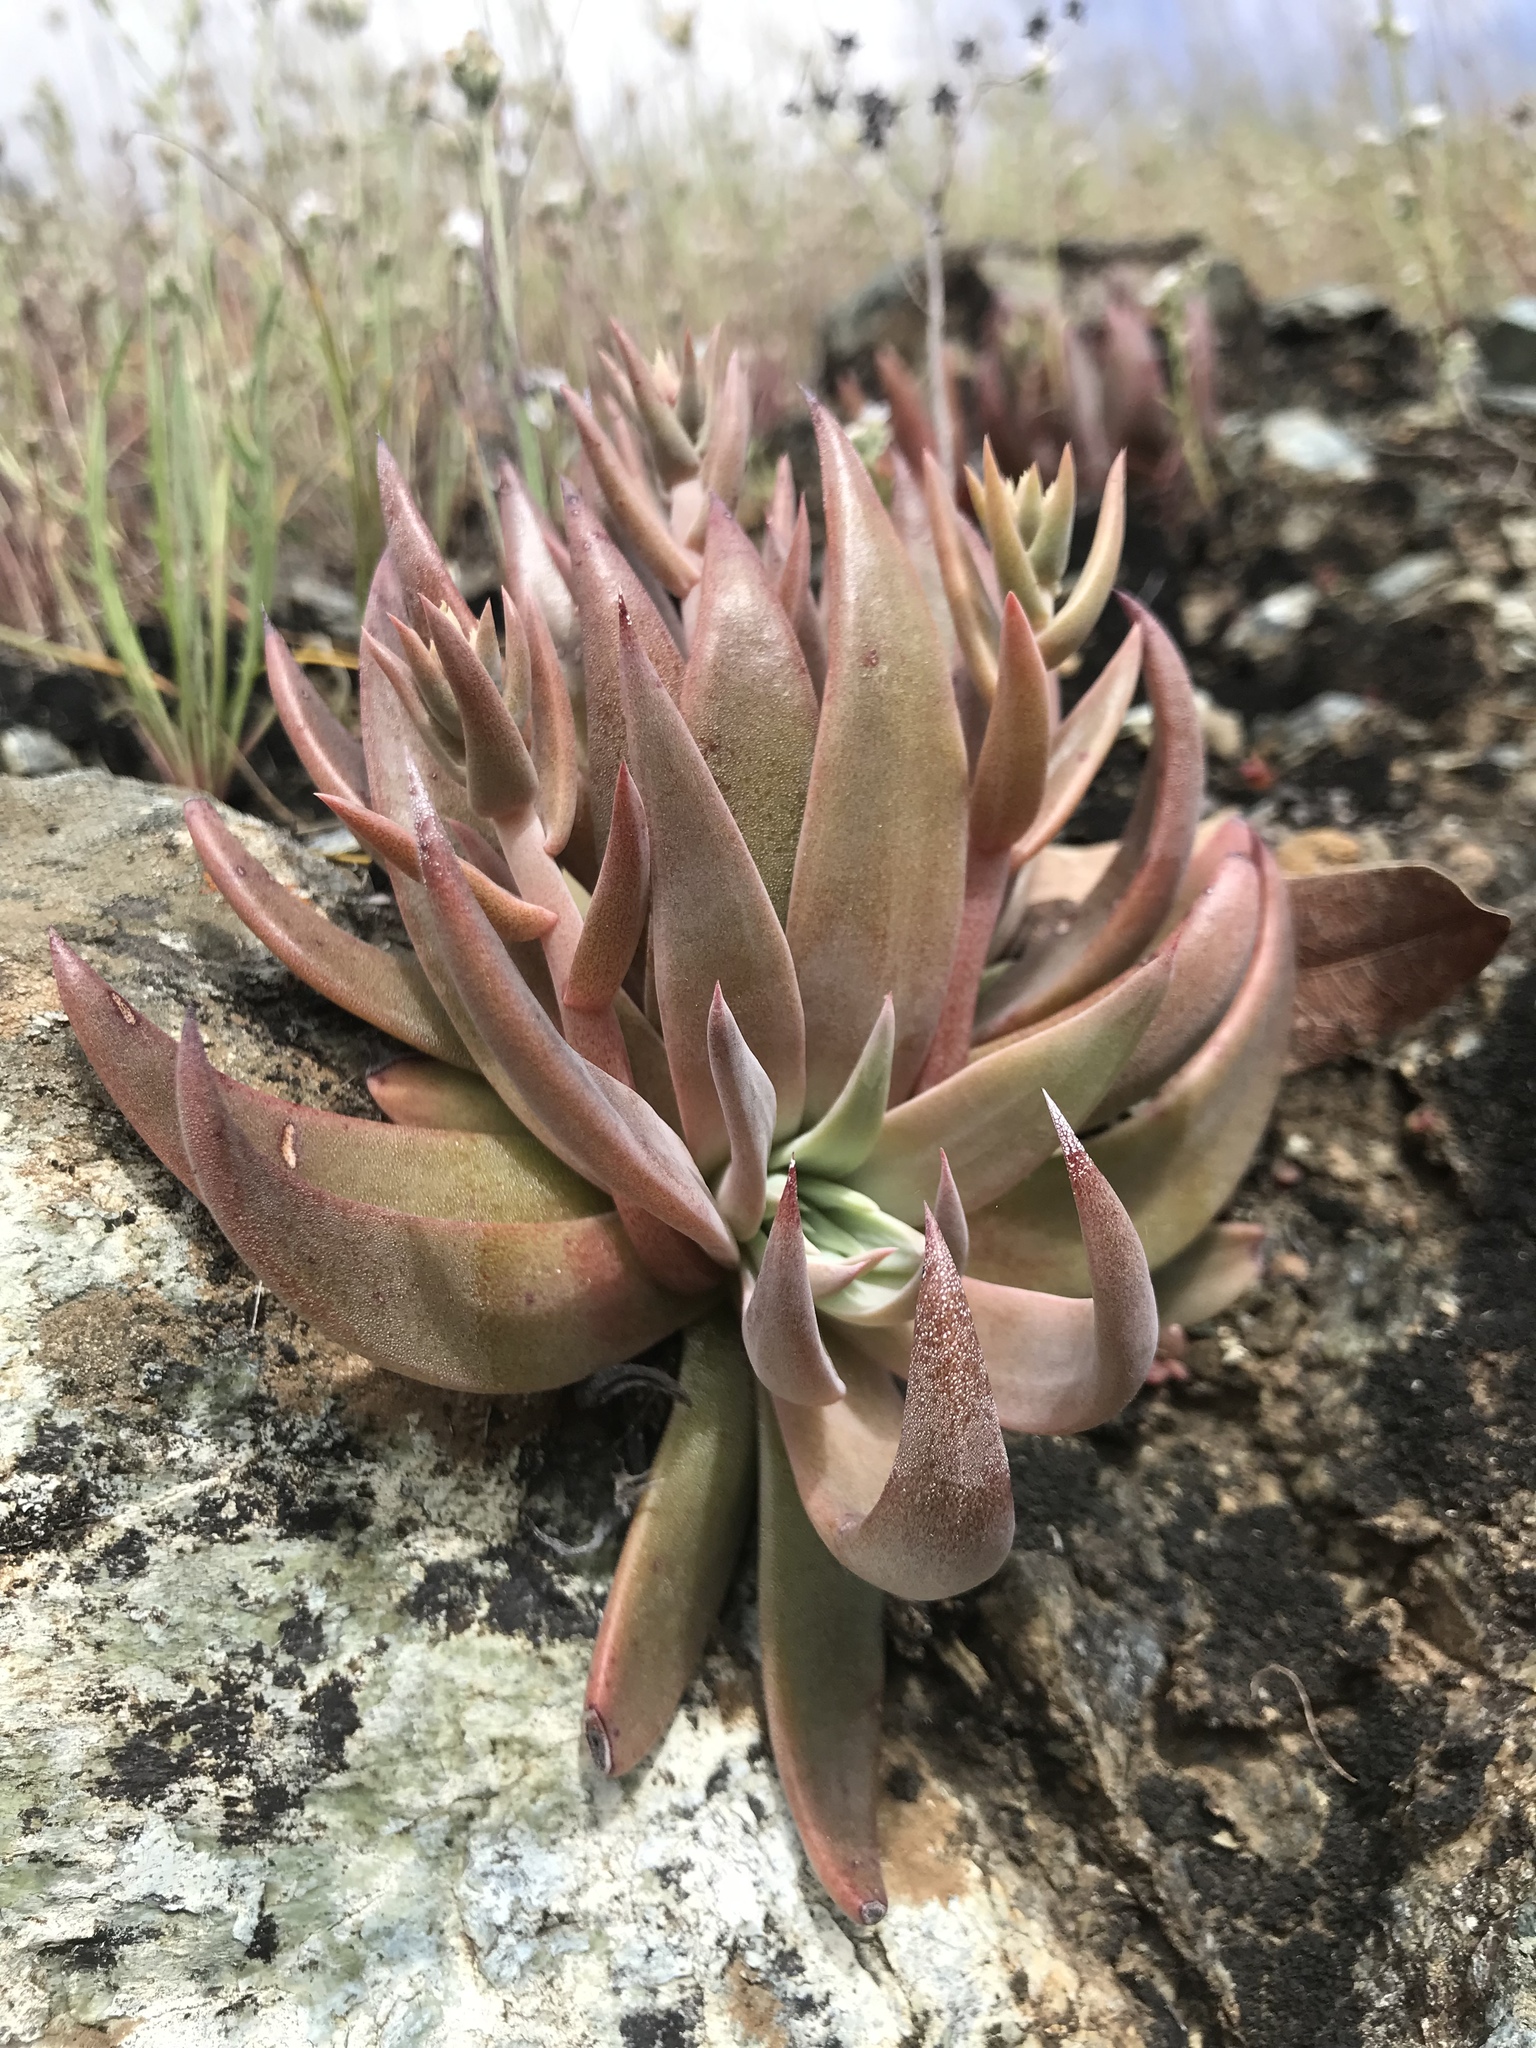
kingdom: Plantae
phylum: Tracheophyta
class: Magnoliopsida
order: Saxifragales
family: Crassulaceae
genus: Dudleya
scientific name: Dudleya abramsii
